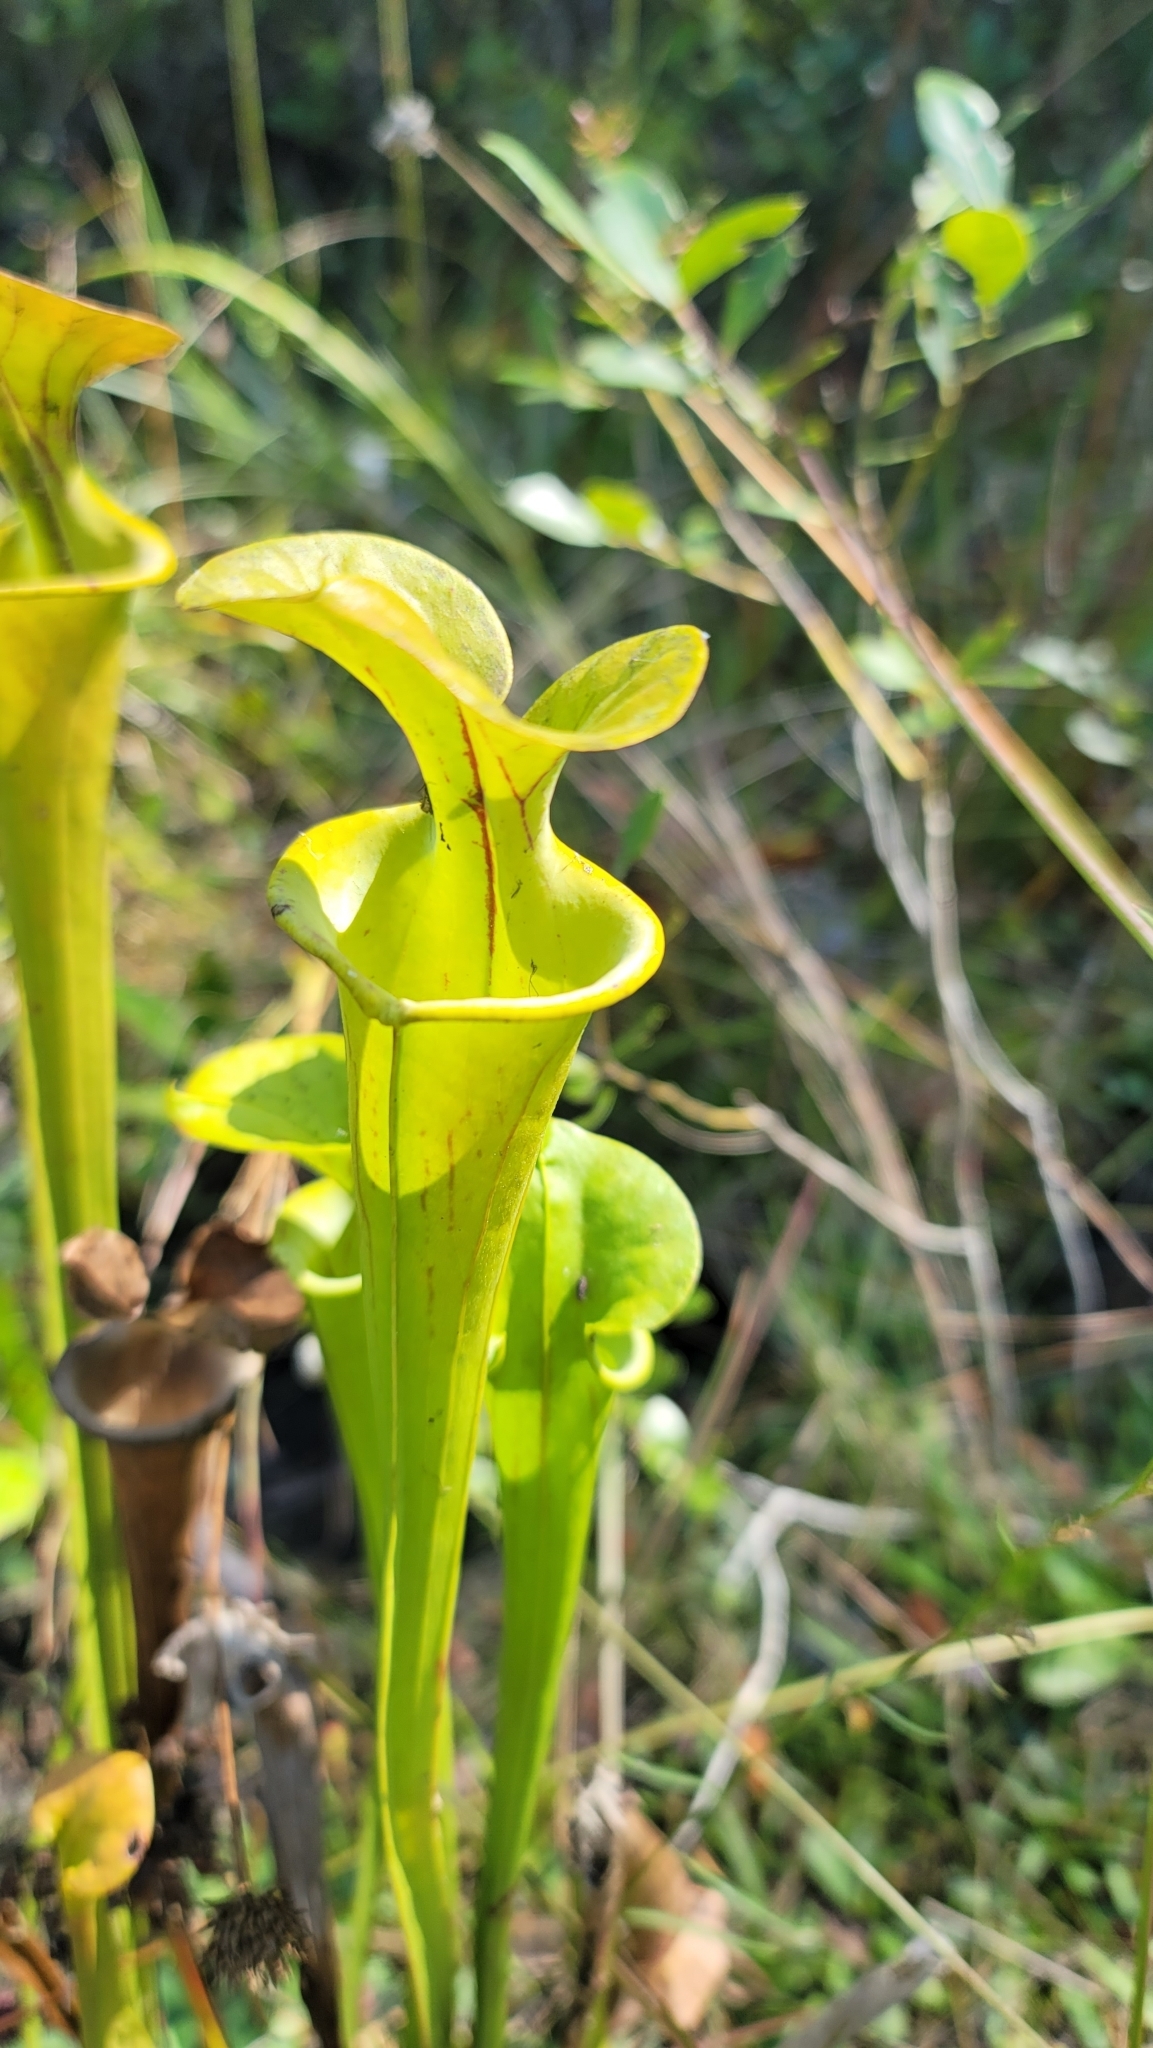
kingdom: Plantae
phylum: Tracheophyta
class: Magnoliopsida
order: Ericales
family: Sarraceniaceae
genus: Sarracenia
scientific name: Sarracenia flava
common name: Trumpets
